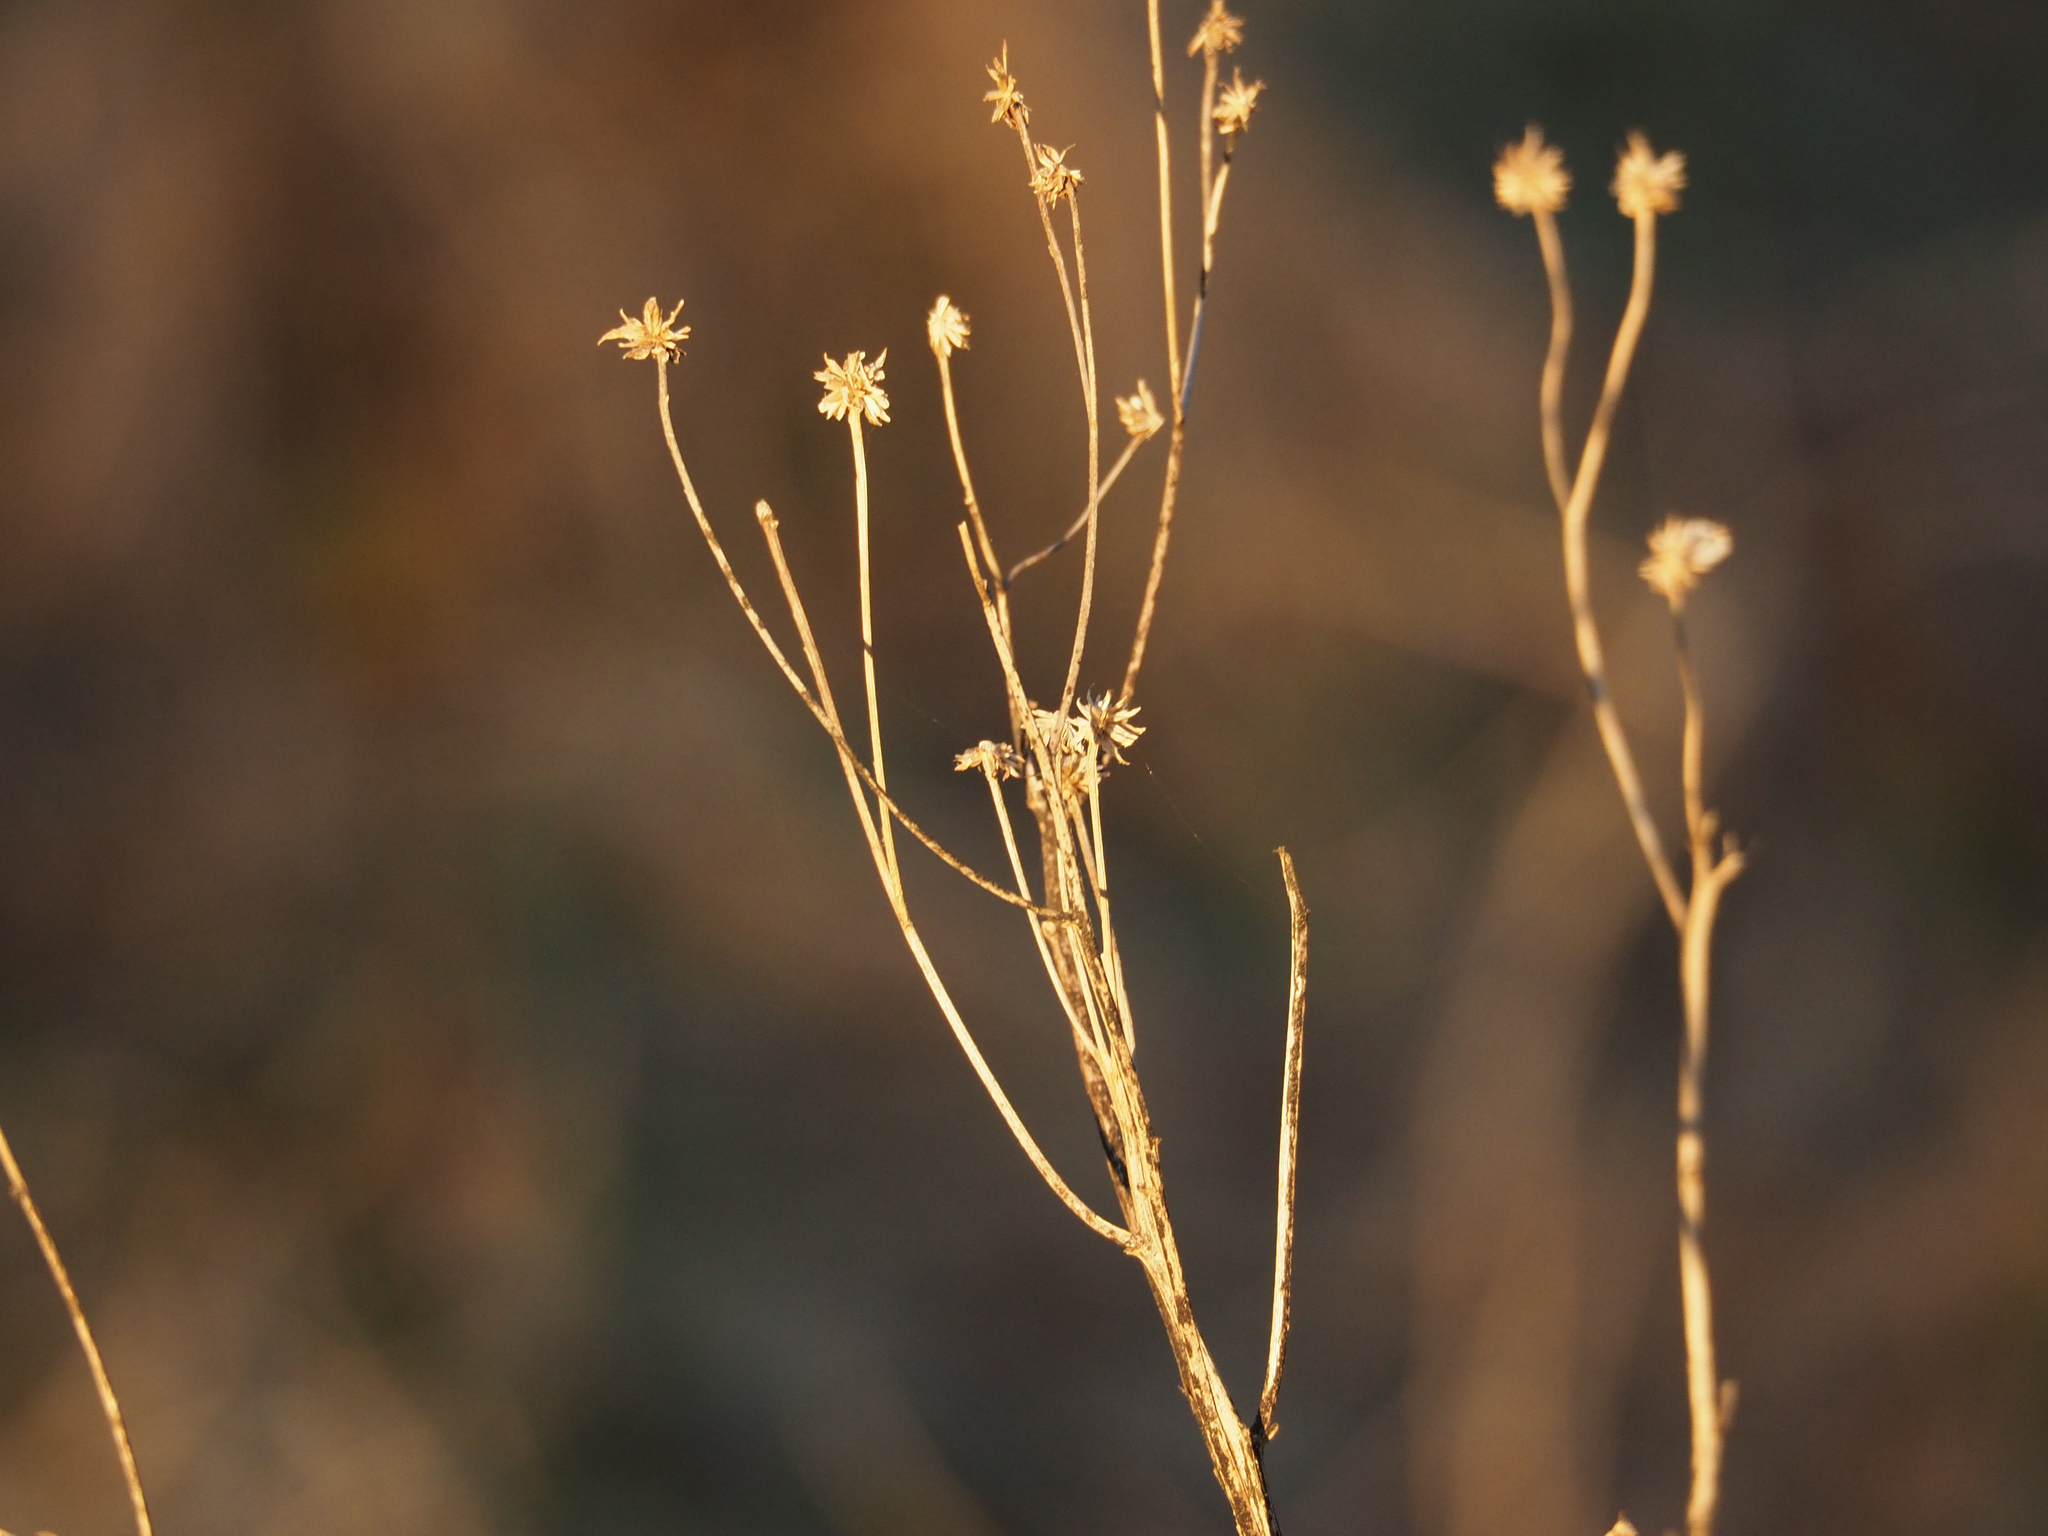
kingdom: Plantae
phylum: Tracheophyta
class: Magnoliopsida
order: Asterales
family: Asteraceae
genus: Verbesina
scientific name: Verbesina alternifolia
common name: Wingstem
